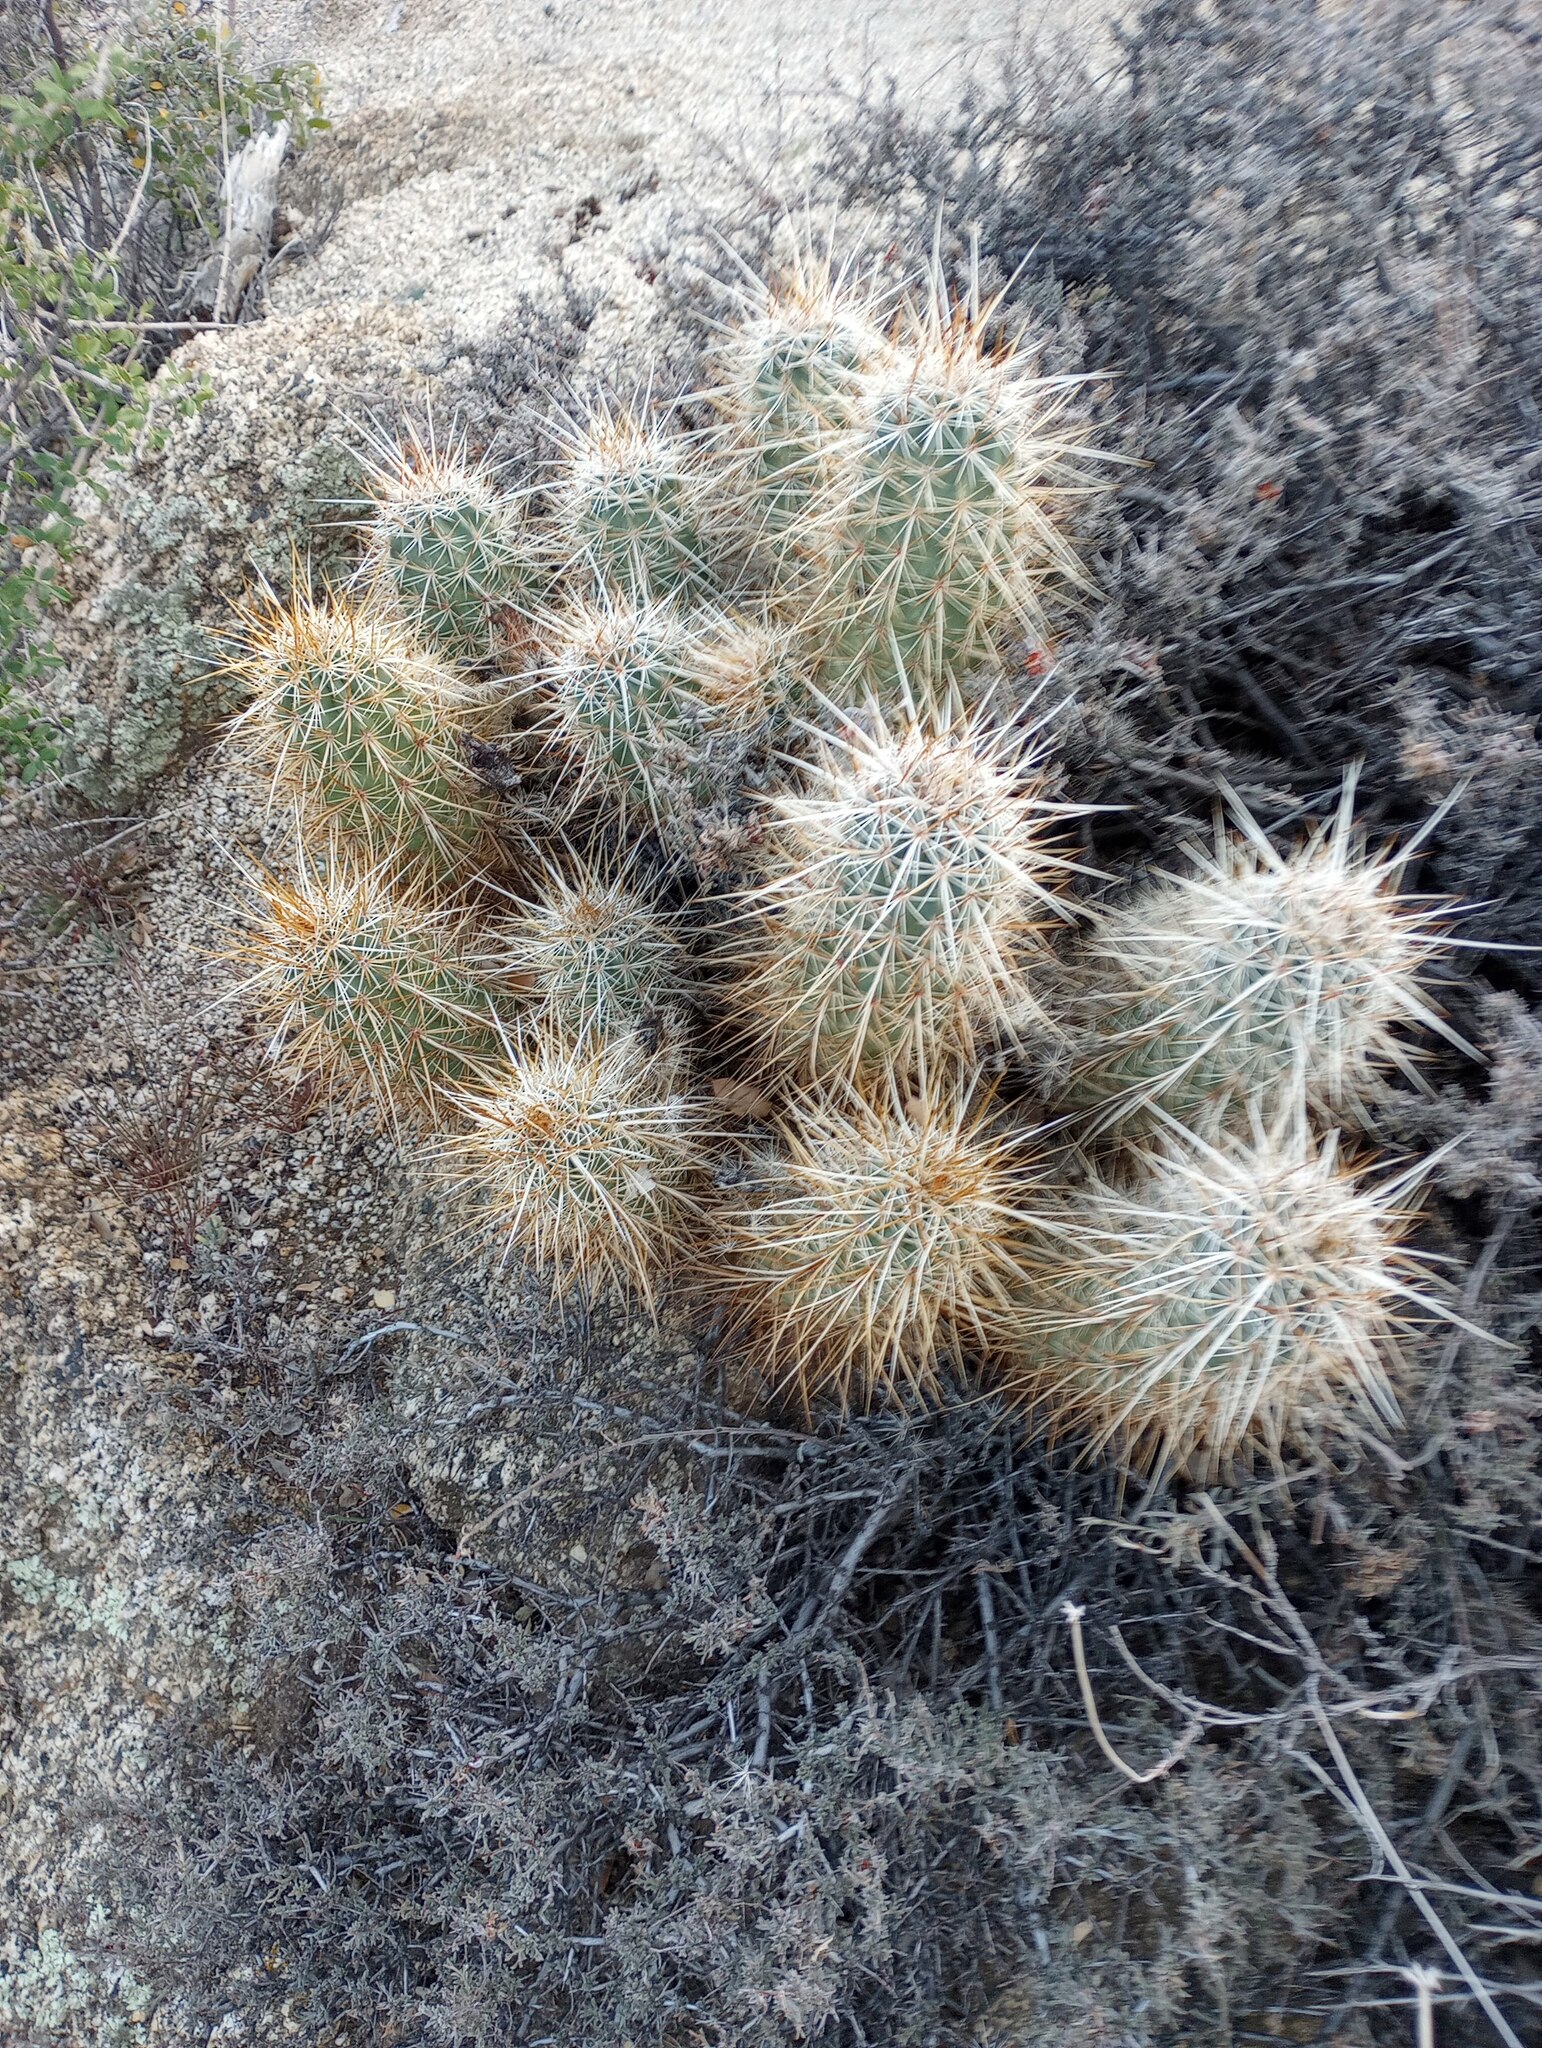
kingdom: Plantae
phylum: Tracheophyta
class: Magnoliopsida
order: Caryophyllales
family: Cactaceae
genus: Echinocereus
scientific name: Echinocereus engelmannii
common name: Engelmann's hedgehog cactus
